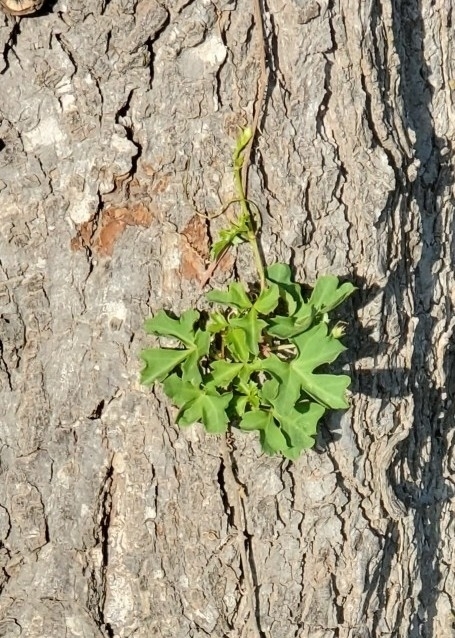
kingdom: Plantae
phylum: Tracheophyta
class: Magnoliopsida
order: Vitales
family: Vitaceae
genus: Cissus
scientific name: Cissus trifoliata
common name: Vine-sorrel
